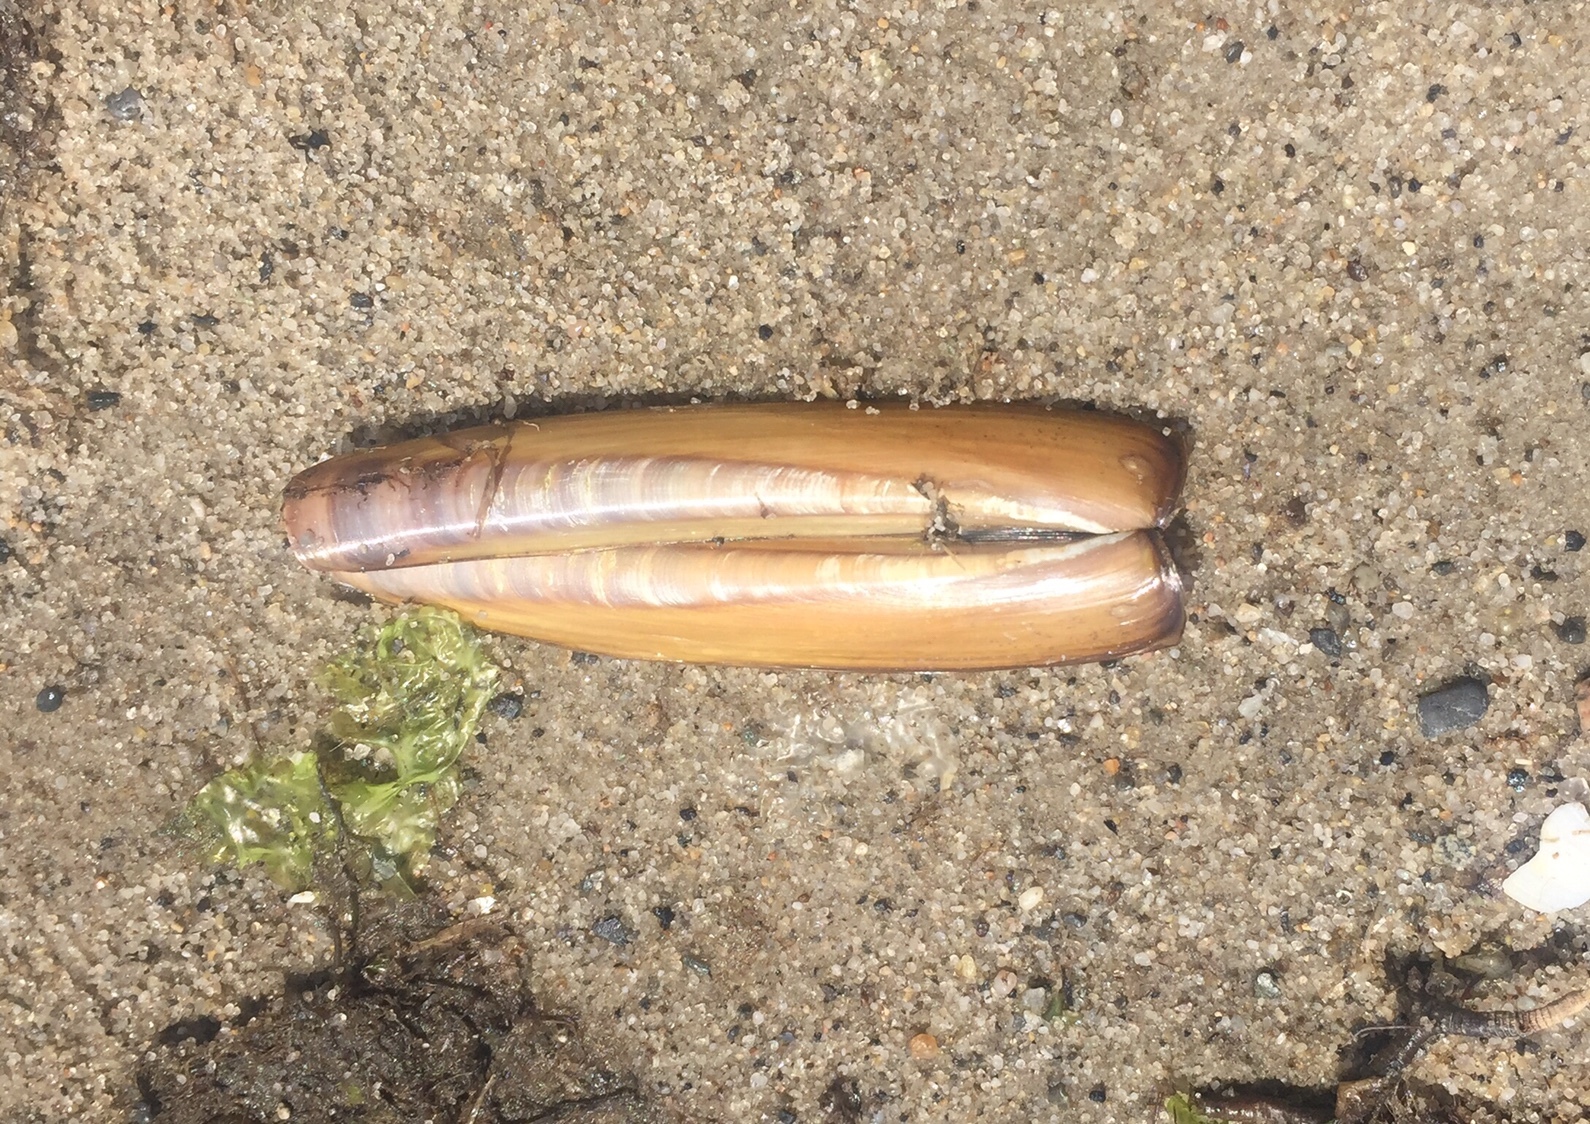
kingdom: Animalia
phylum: Mollusca
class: Bivalvia
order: Adapedonta
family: Pharidae
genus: Ensis
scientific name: Ensis leei
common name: American jack knife clam
